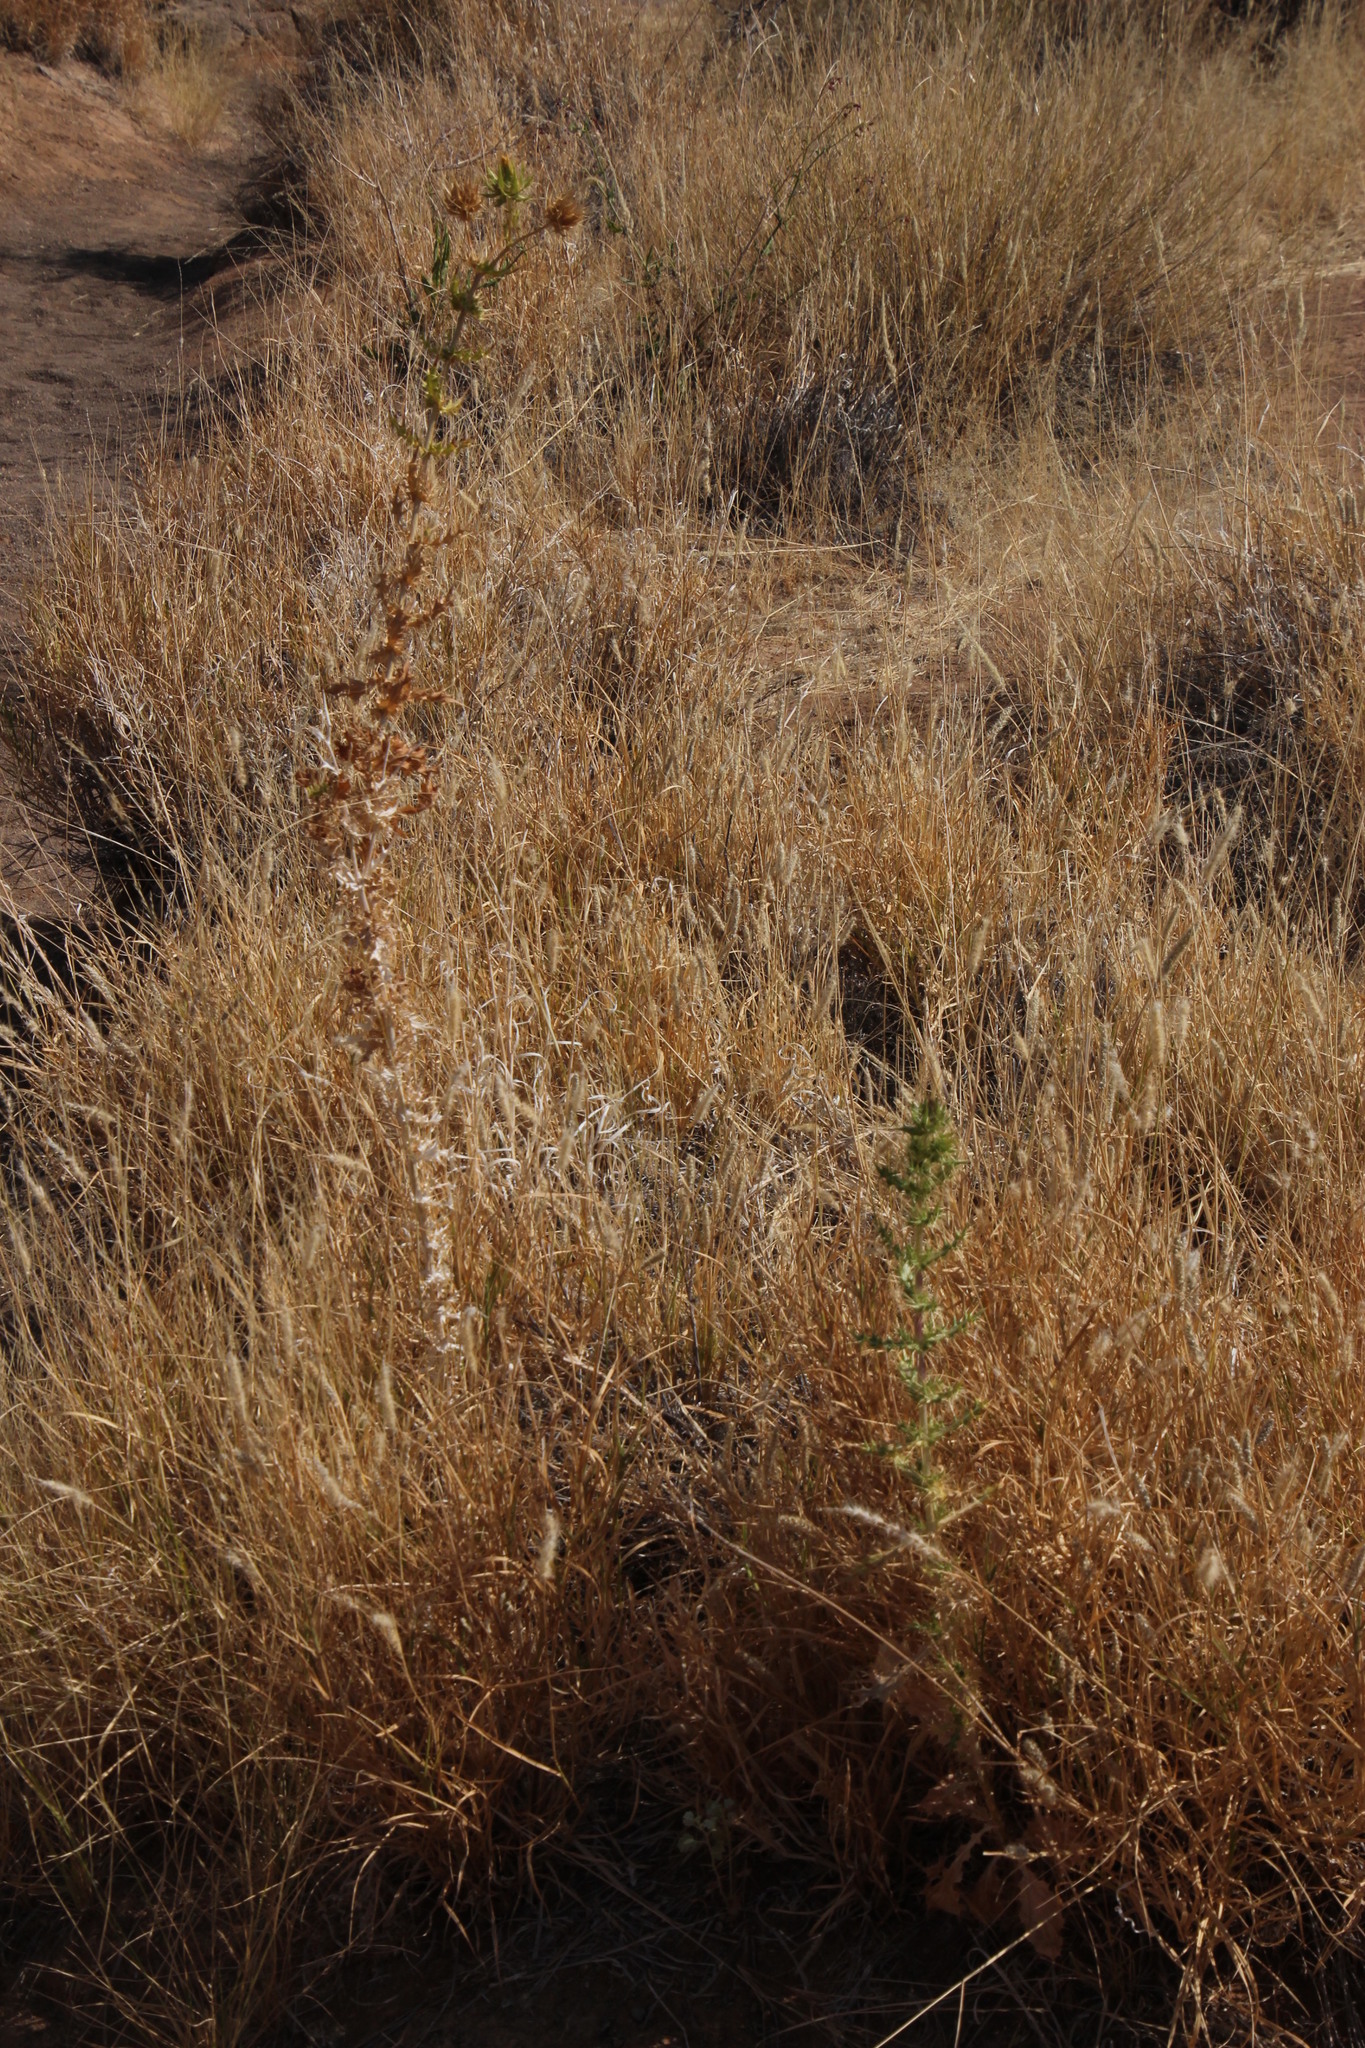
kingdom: Plantae
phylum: Tracheophyta
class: Magnoliopsida
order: Asterales
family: Asteraceae
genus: Berkheya
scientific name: Berkheya spinosissima
